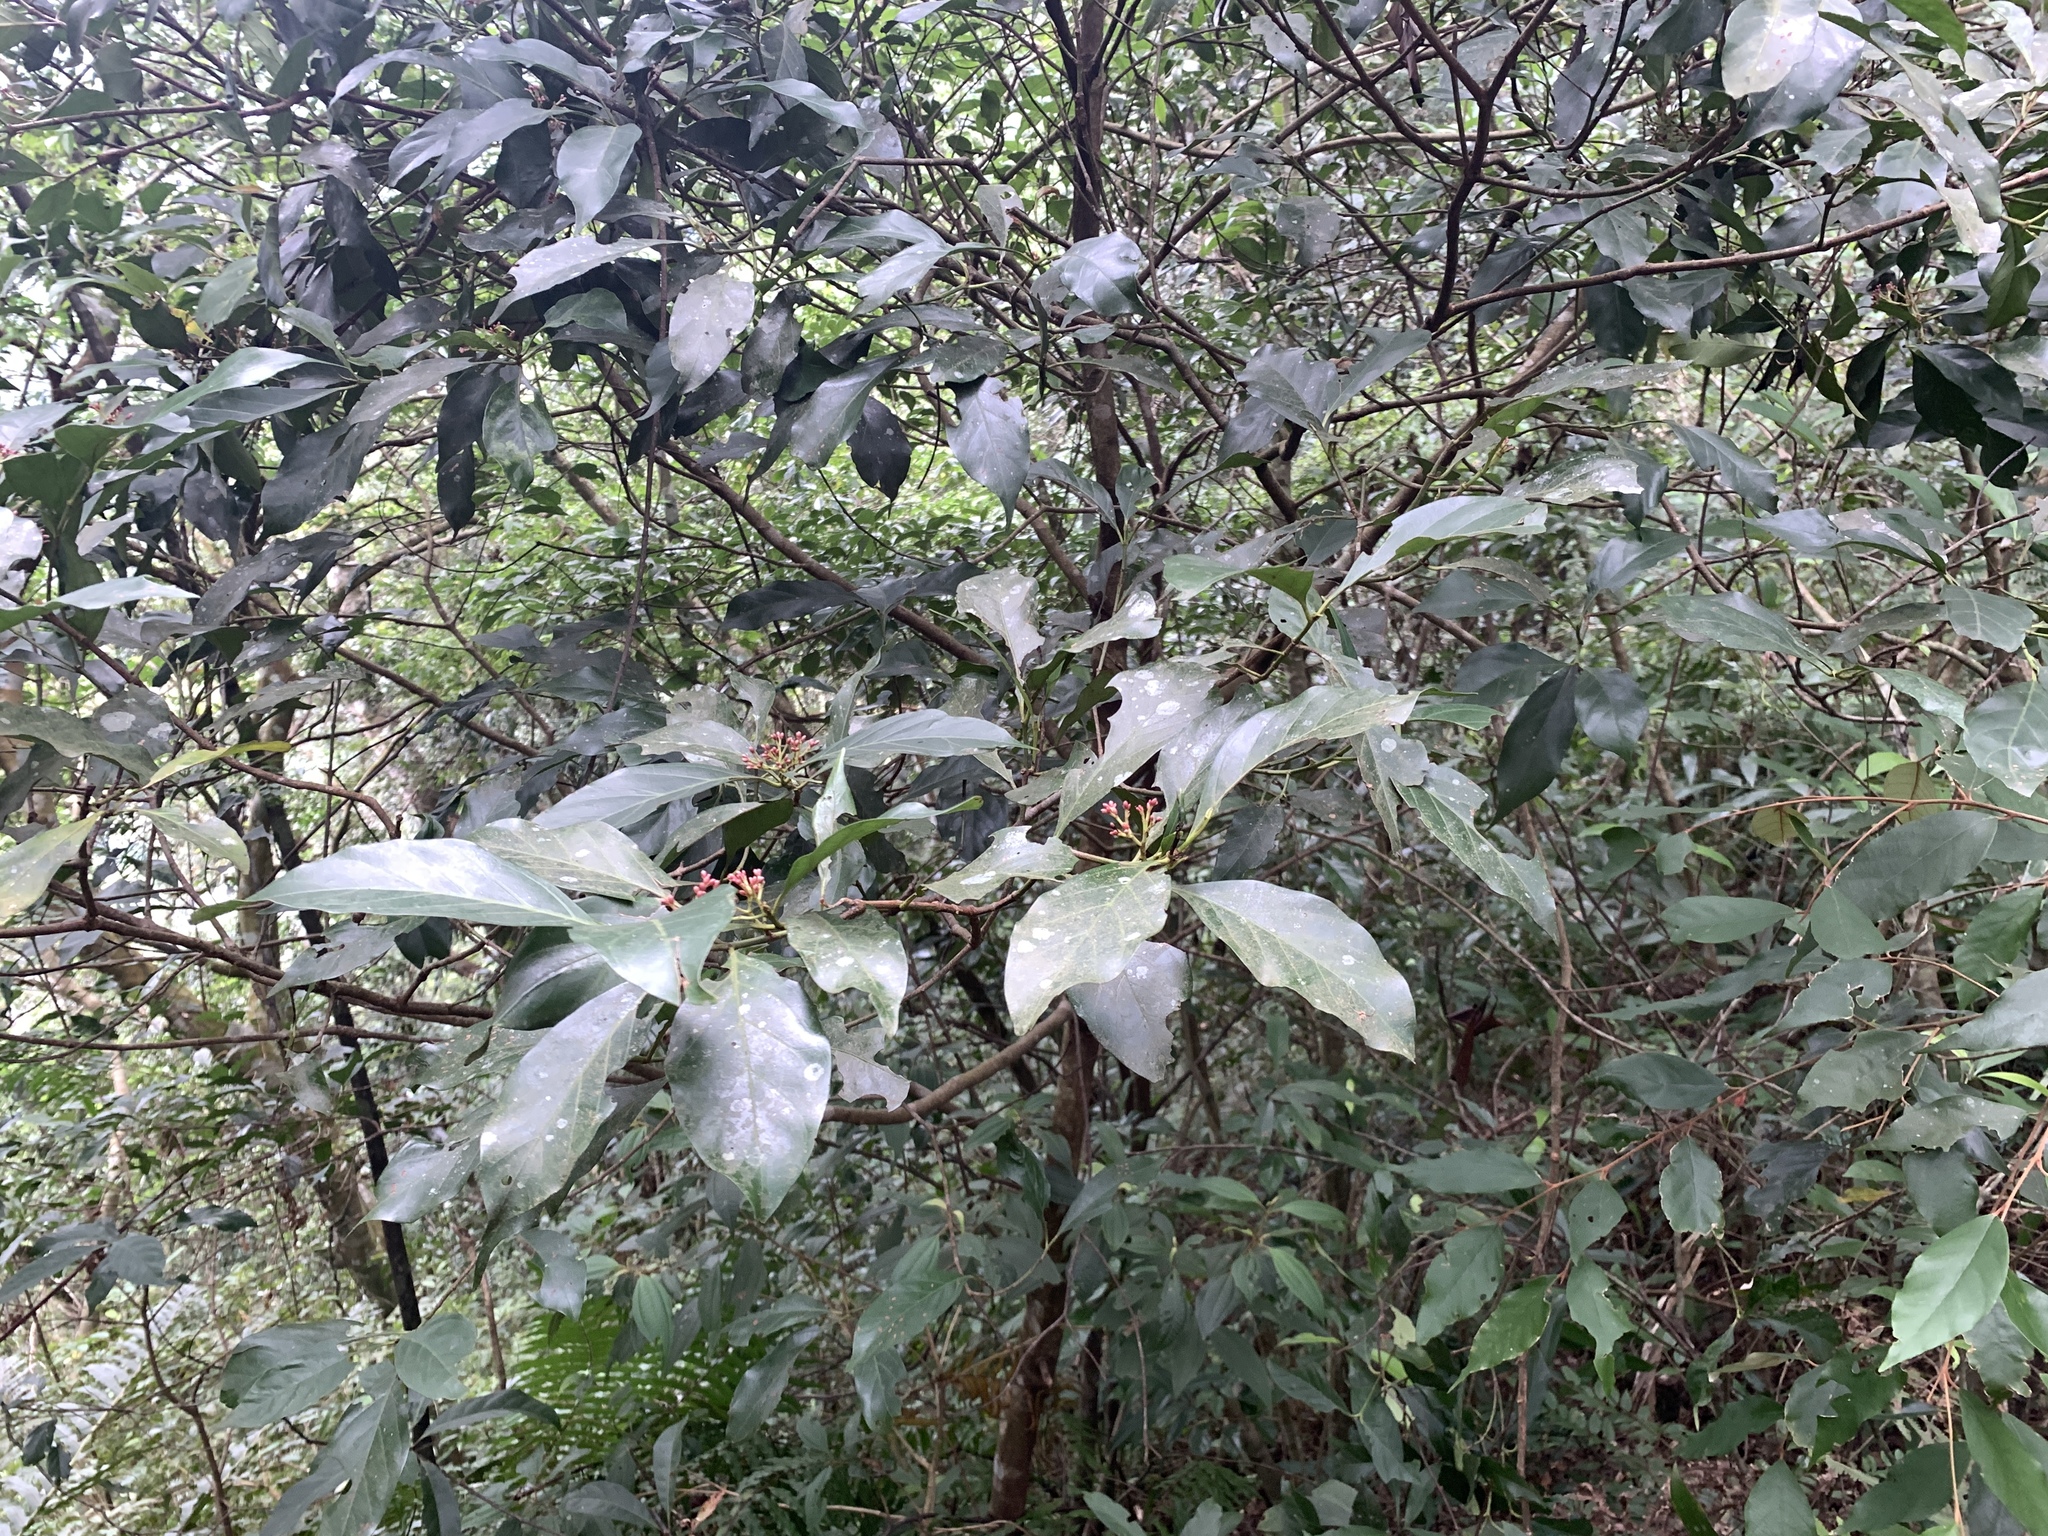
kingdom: Plantae
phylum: Tracheophyta
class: Magnoliopsida
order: Gentianales
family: Rubiaceae
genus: Aidia
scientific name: Aidia cochinchinensis
